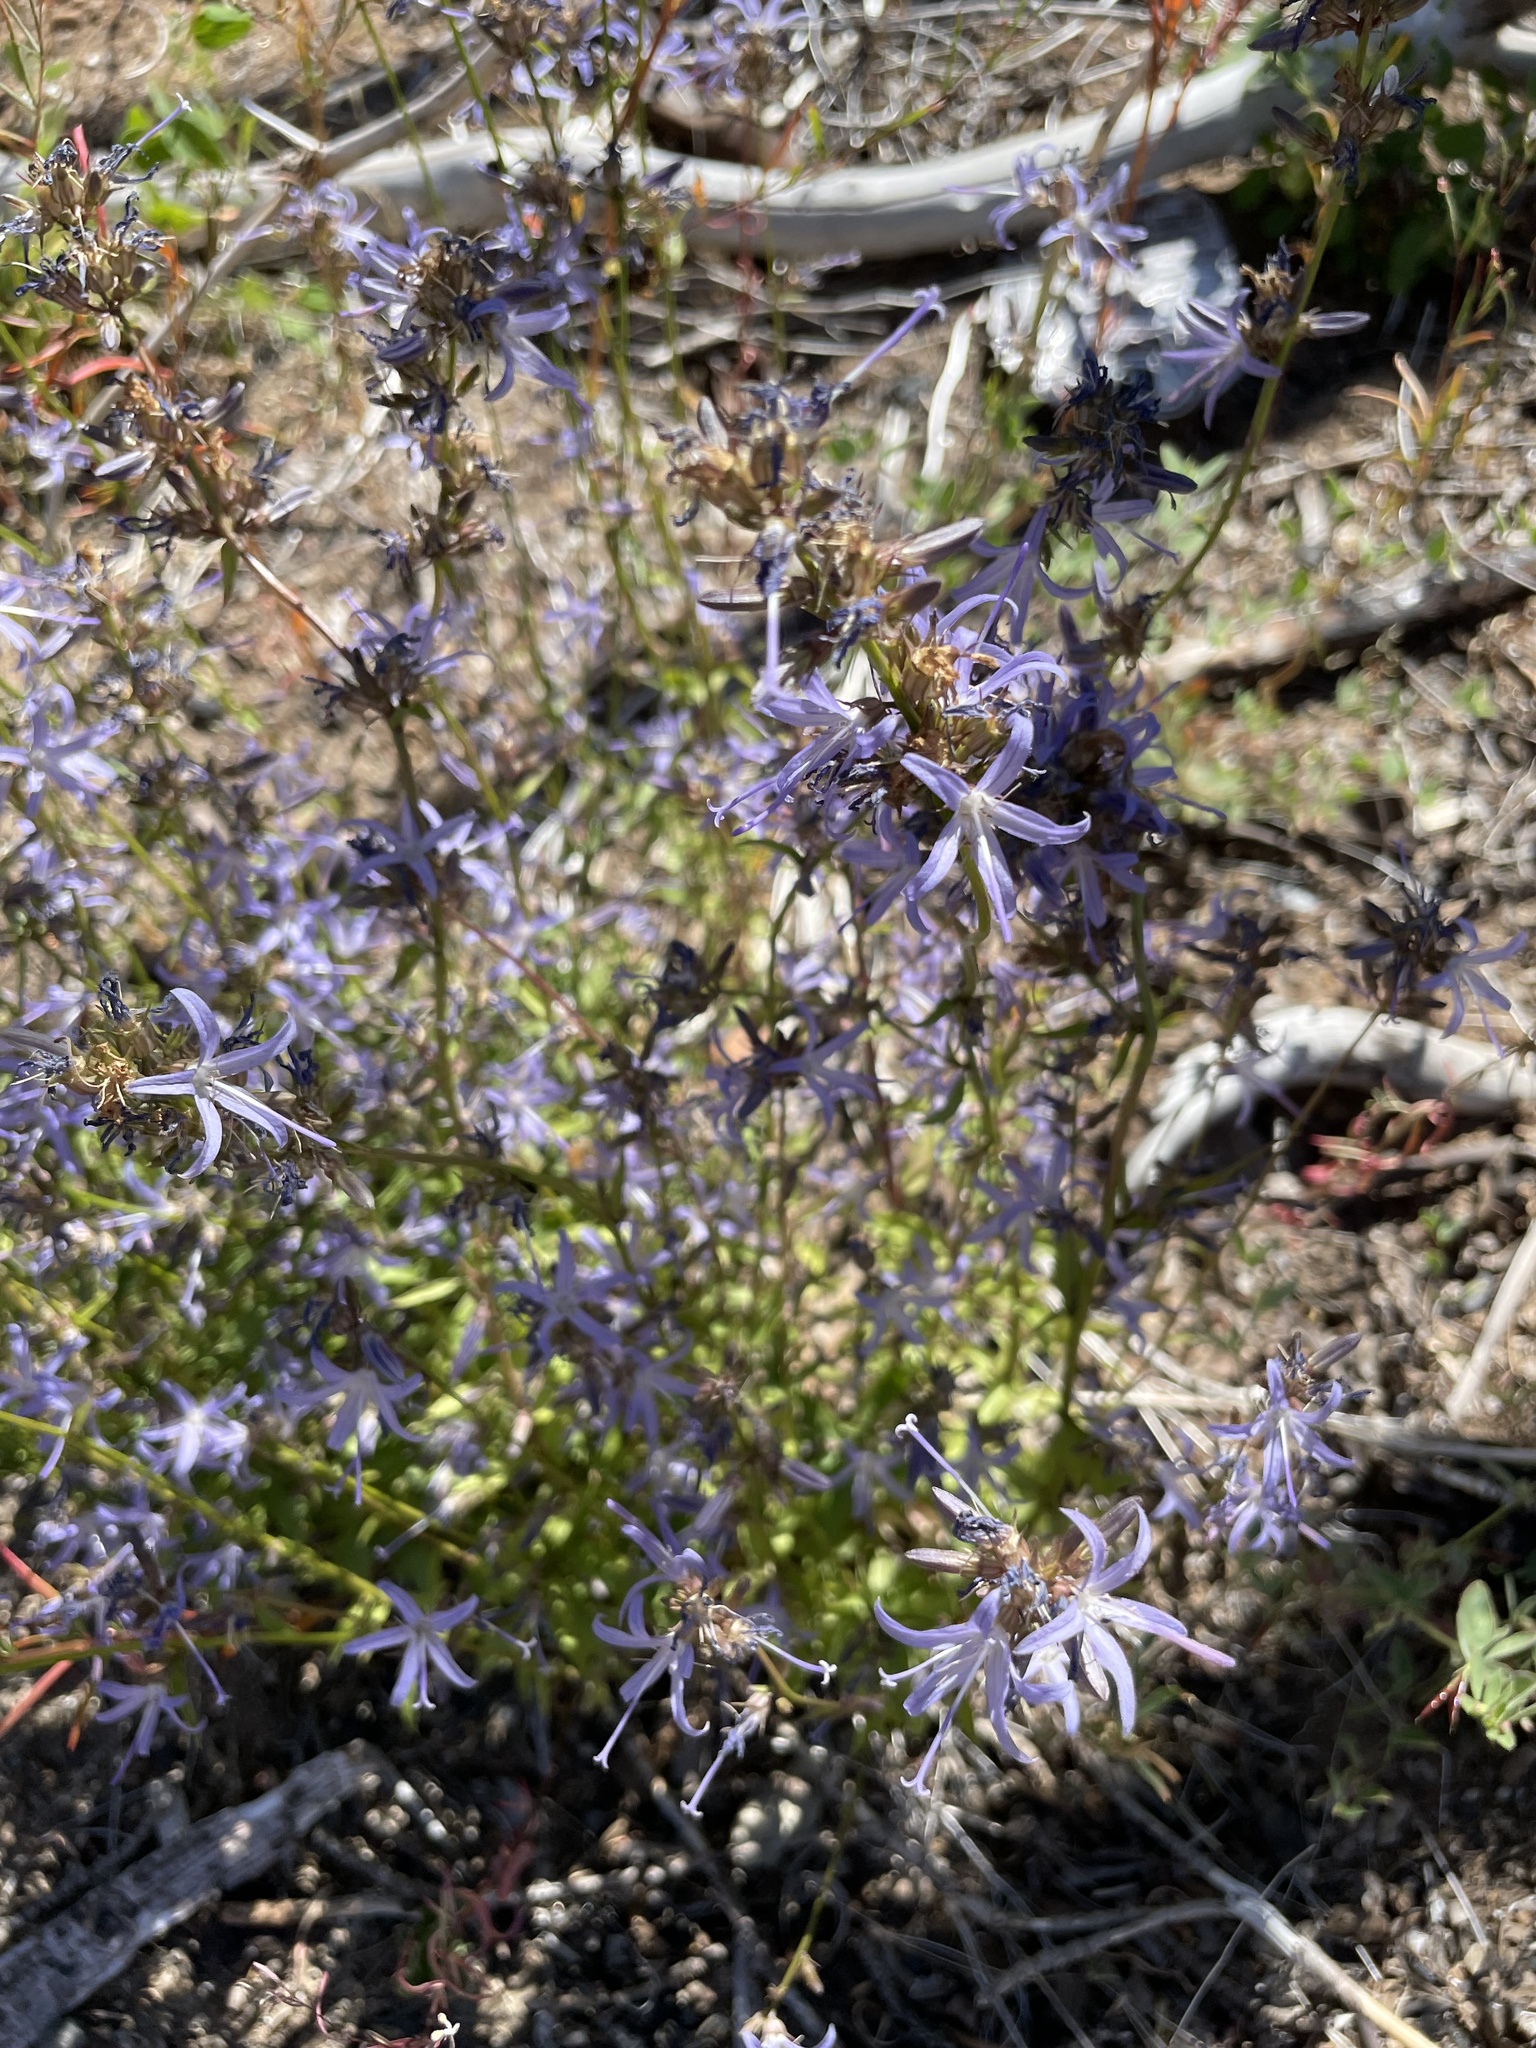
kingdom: Plantae
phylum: Tracheophyta
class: Magnoliopsida
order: Asterales
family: Campanulaceae
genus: Smithiastrum
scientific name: Smithiastrum prenanthoides
